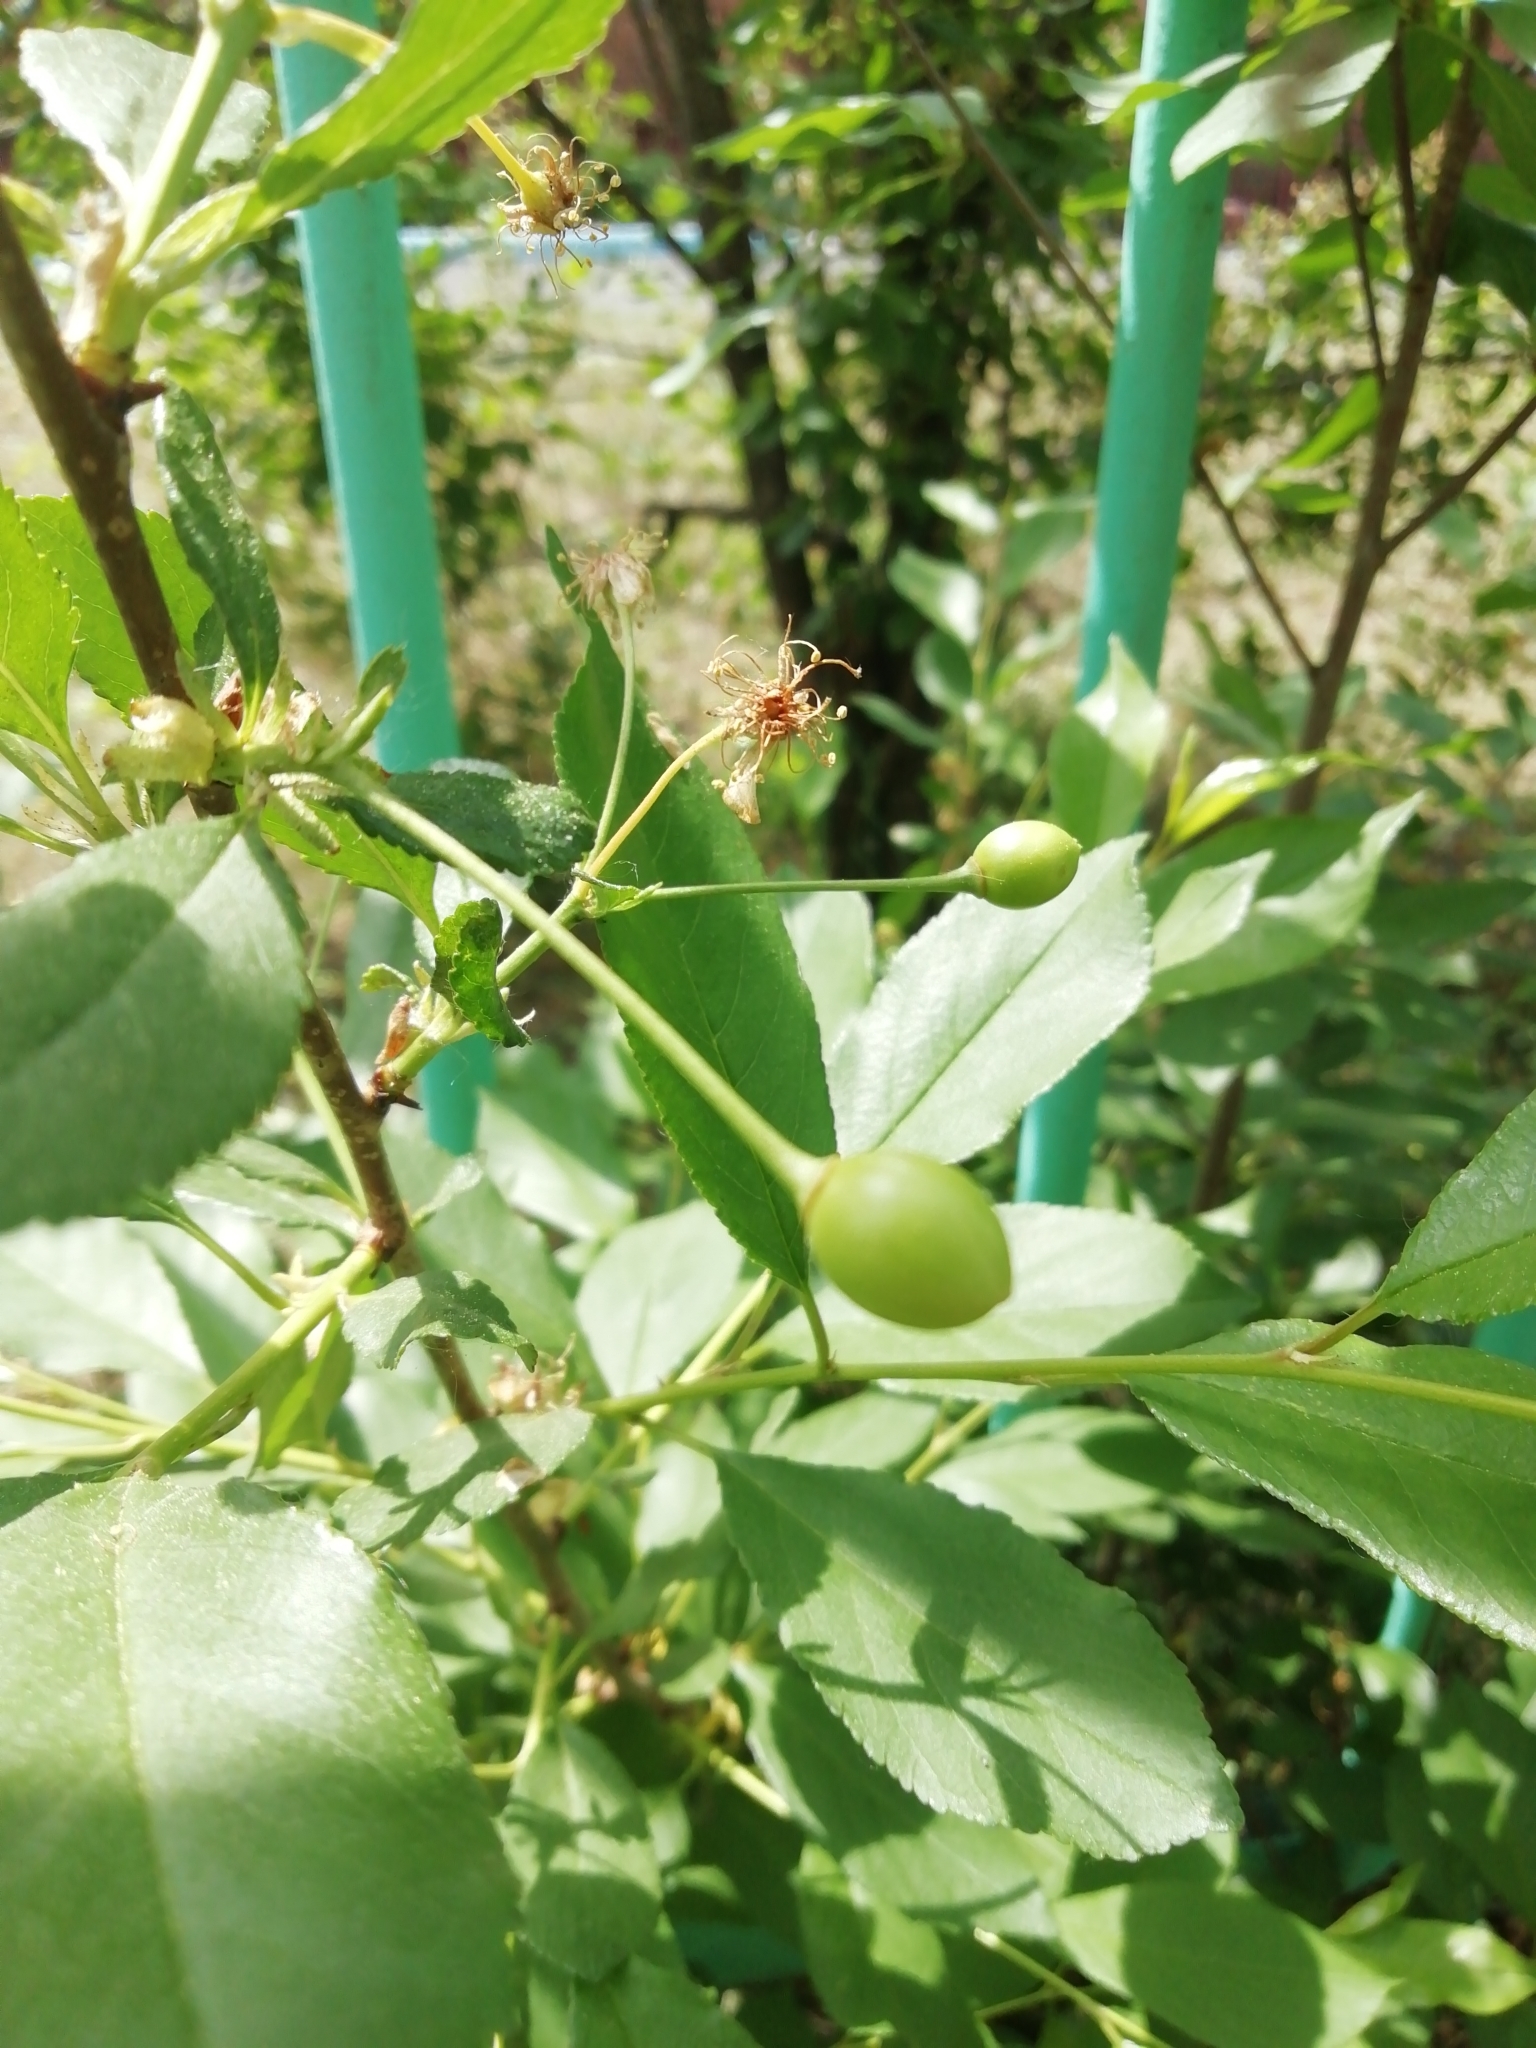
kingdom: Plantae
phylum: Tracheophyta
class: Magnoliopsida
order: Rosales
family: Rosaceae
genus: Prunus
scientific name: Prunus padus
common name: Bird cherry
